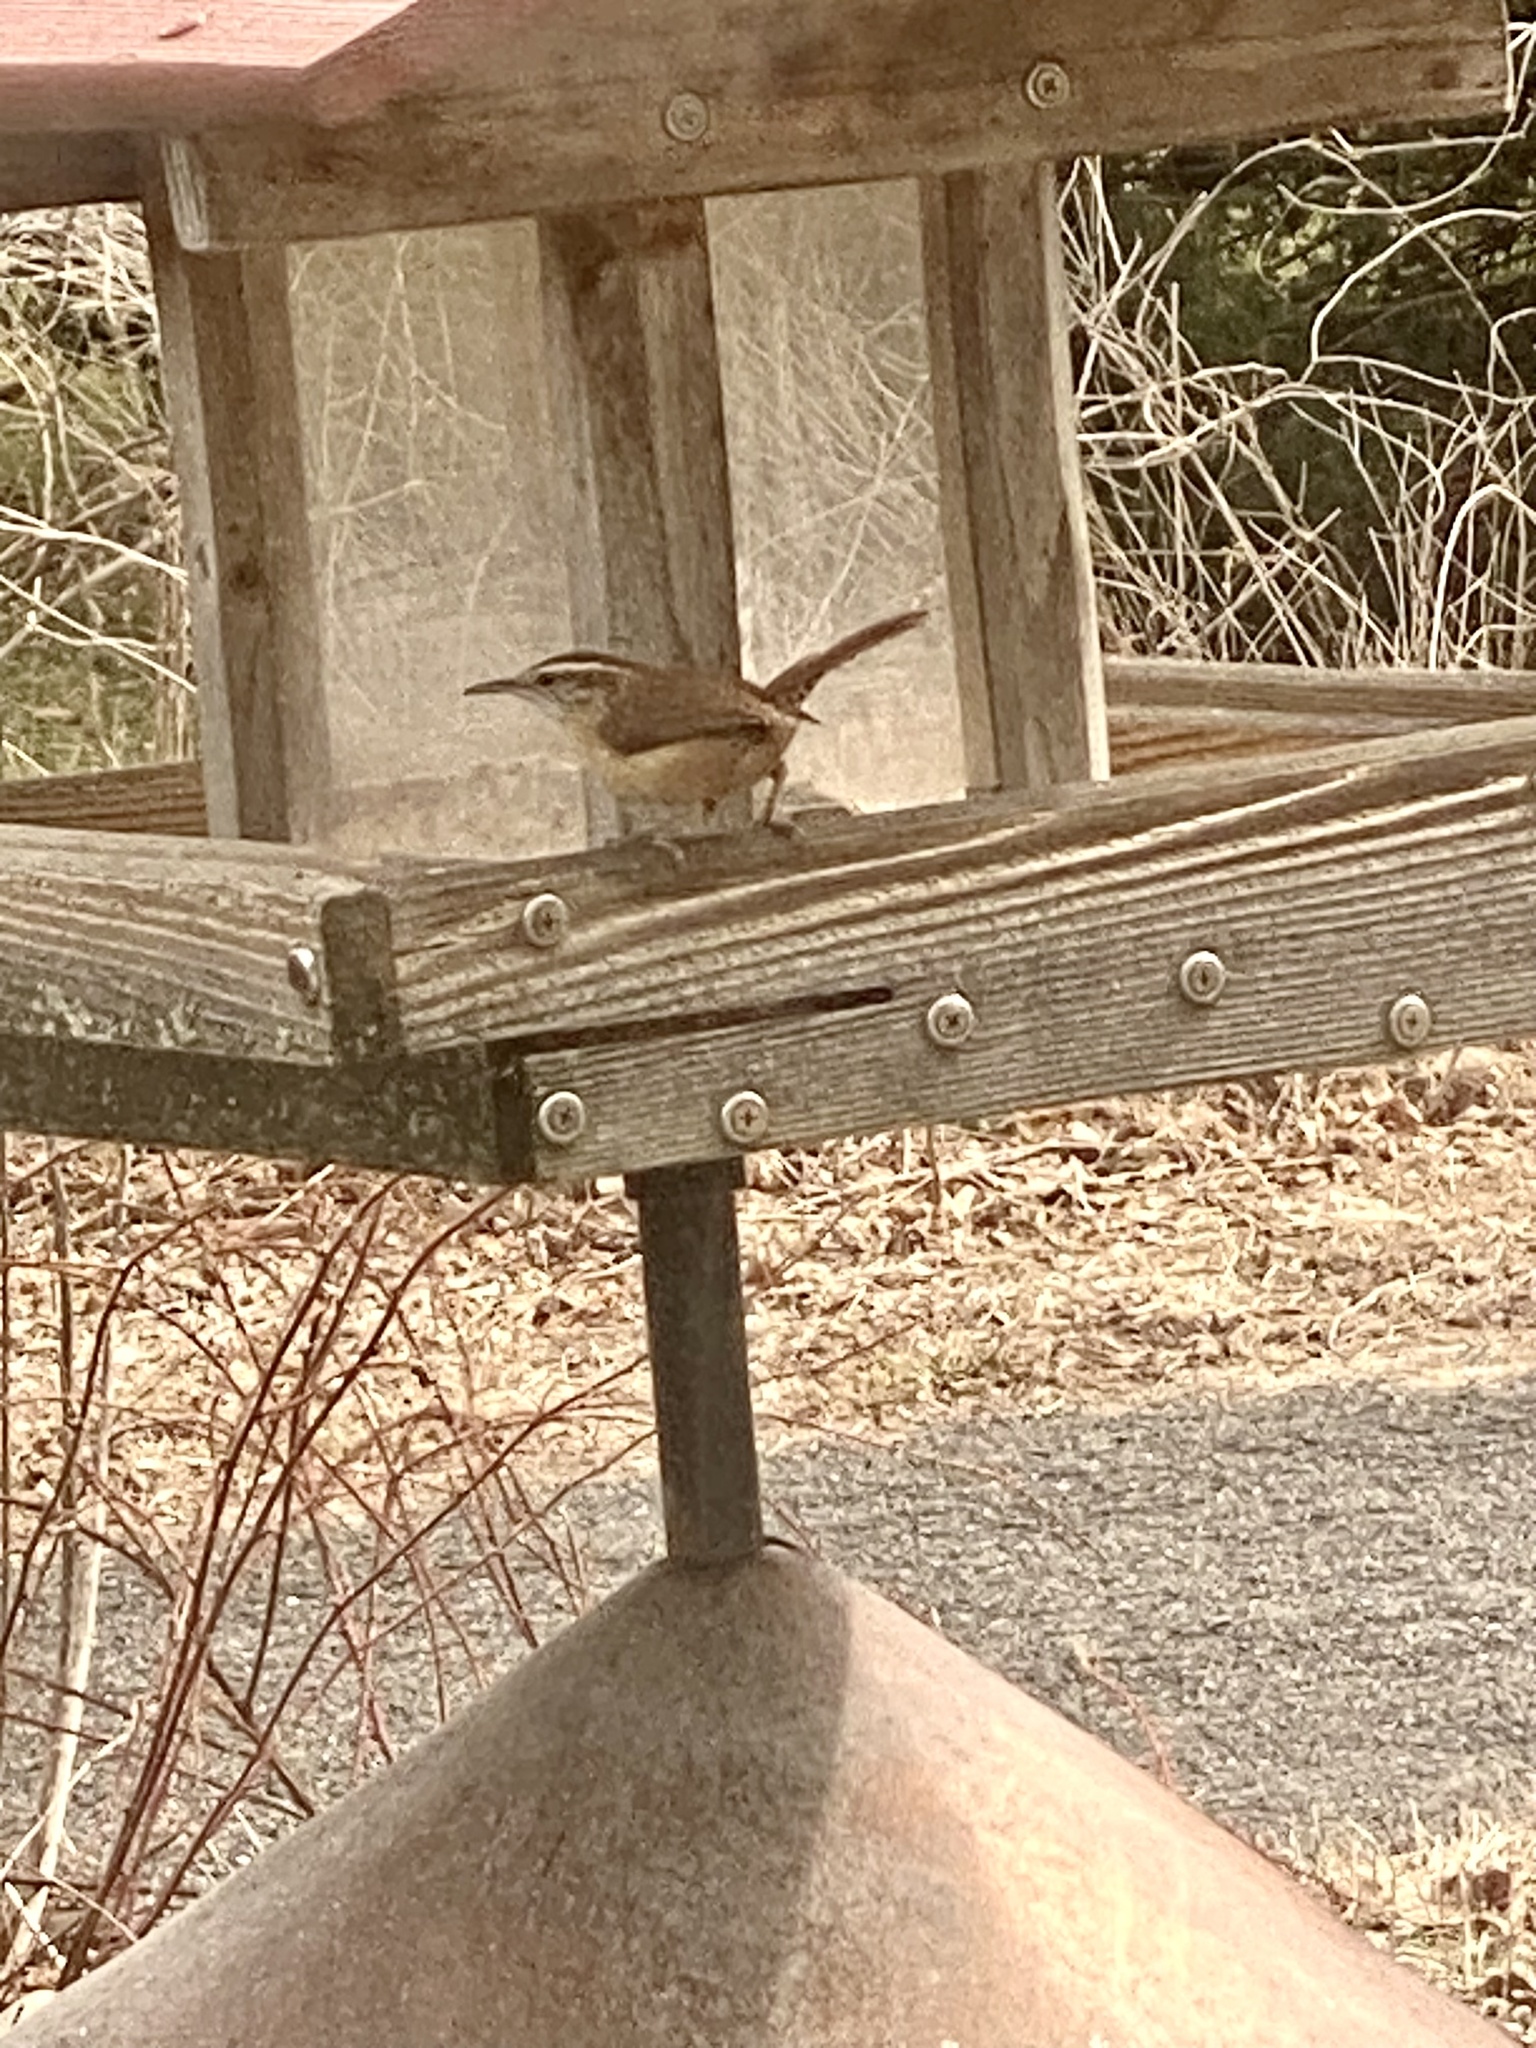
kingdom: Animalia
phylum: Chordata
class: Aves
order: Passeriformes
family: Troglodytidae
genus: Thryothorus
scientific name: Thryothorus ludovicianus
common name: Carolina wren
